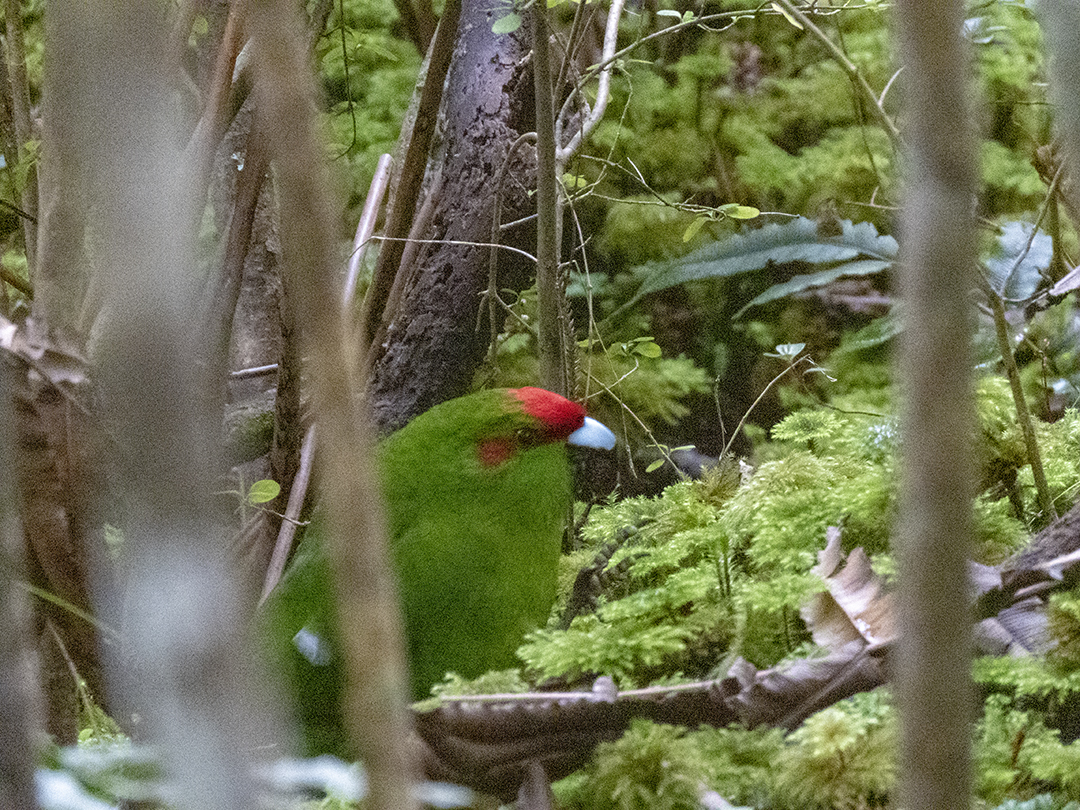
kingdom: Animalia
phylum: Chordata
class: Aves
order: Psittaciformes
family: Psittacidae
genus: Cyanoramphus
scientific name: Cyanoramphus novaezelandiae
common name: Red-fronted parakeet
